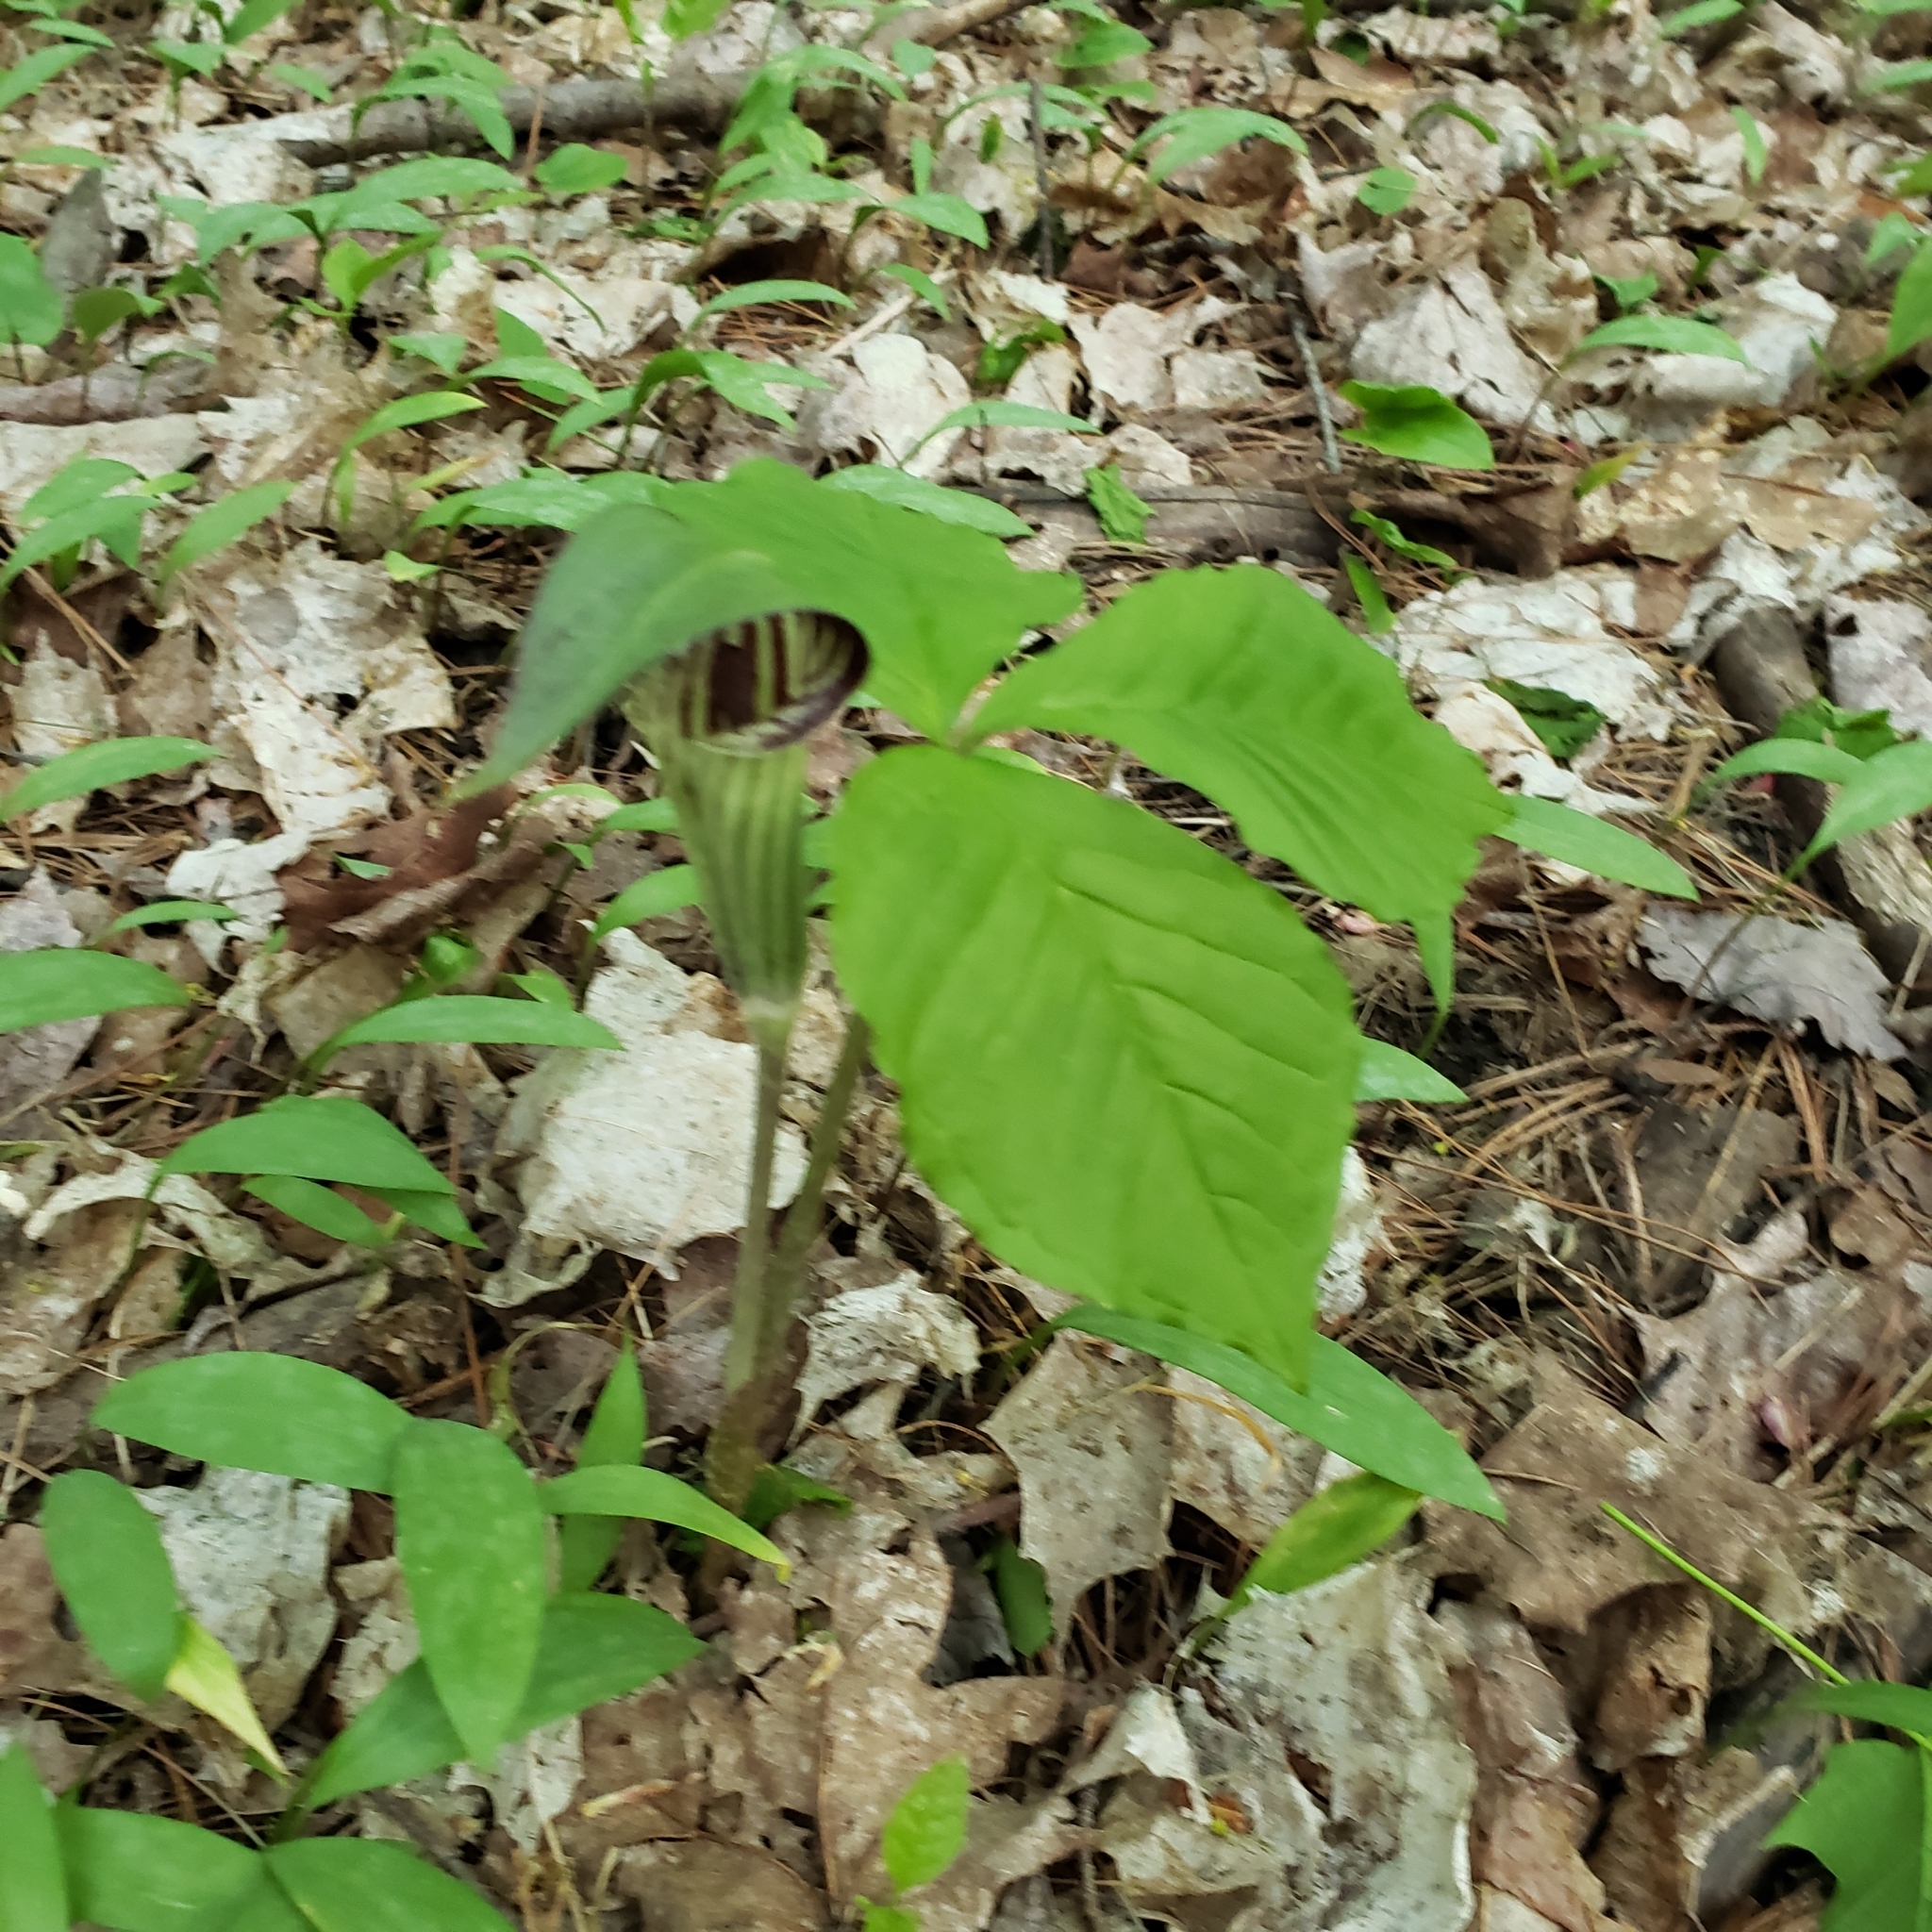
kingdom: Plantae
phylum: Tracheophyta
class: Liliopsida
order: Alismatales
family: Araceae
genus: Arisaema
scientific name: Arisaema triphyllum
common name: Jack-in-the-pulpit
